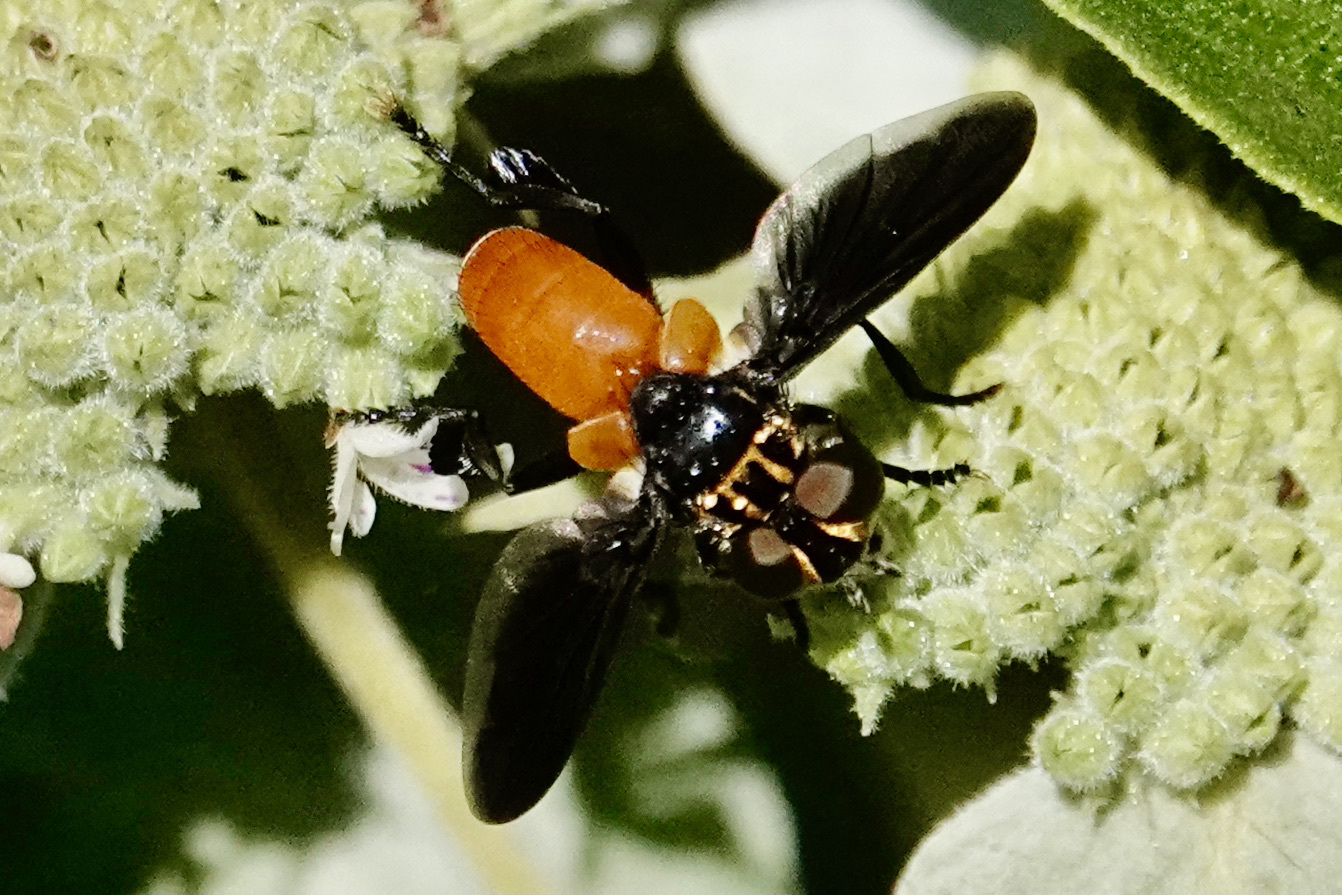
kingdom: Animalia
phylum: Arthropoda
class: Insecta
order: Diptera
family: Tachinidae
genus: Trichopoda
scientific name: Trichopoda pennipes
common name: Tachinid fly
